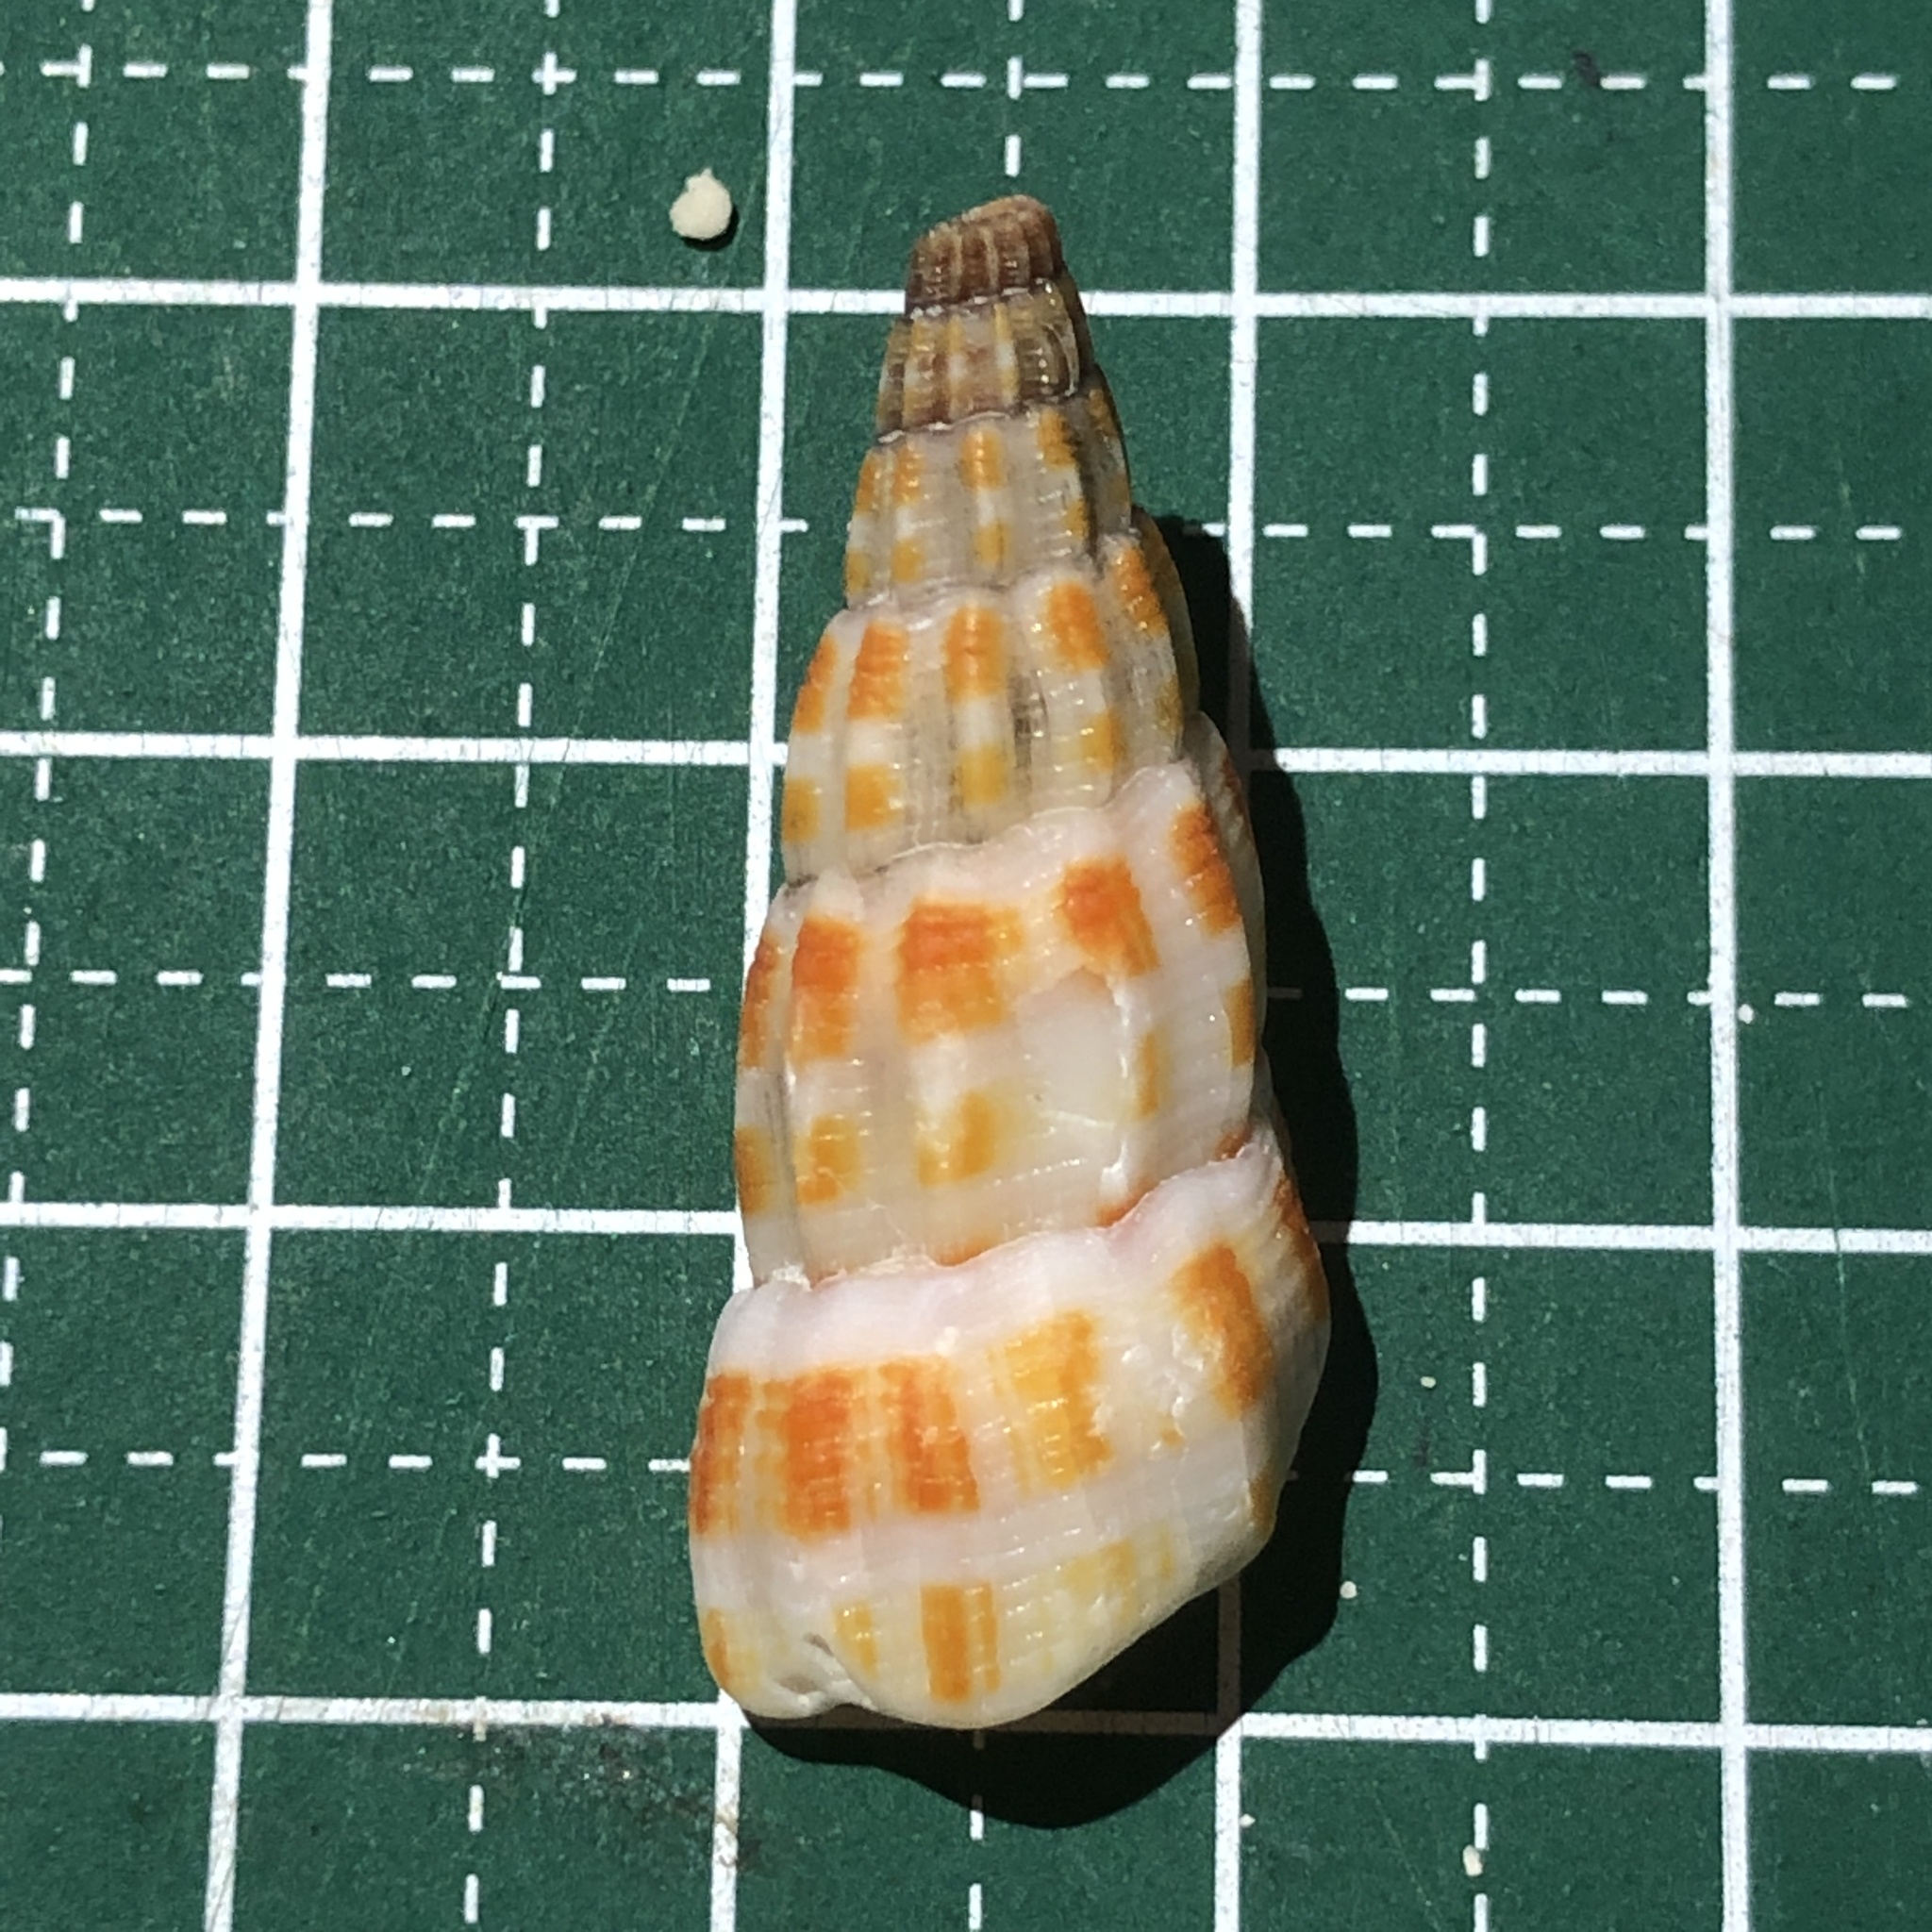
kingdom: Animalia
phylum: Mollusca
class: Gastropoda
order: Neogastropoda
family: Costellariidae
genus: Vexillum
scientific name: Vexillum stainforthii
